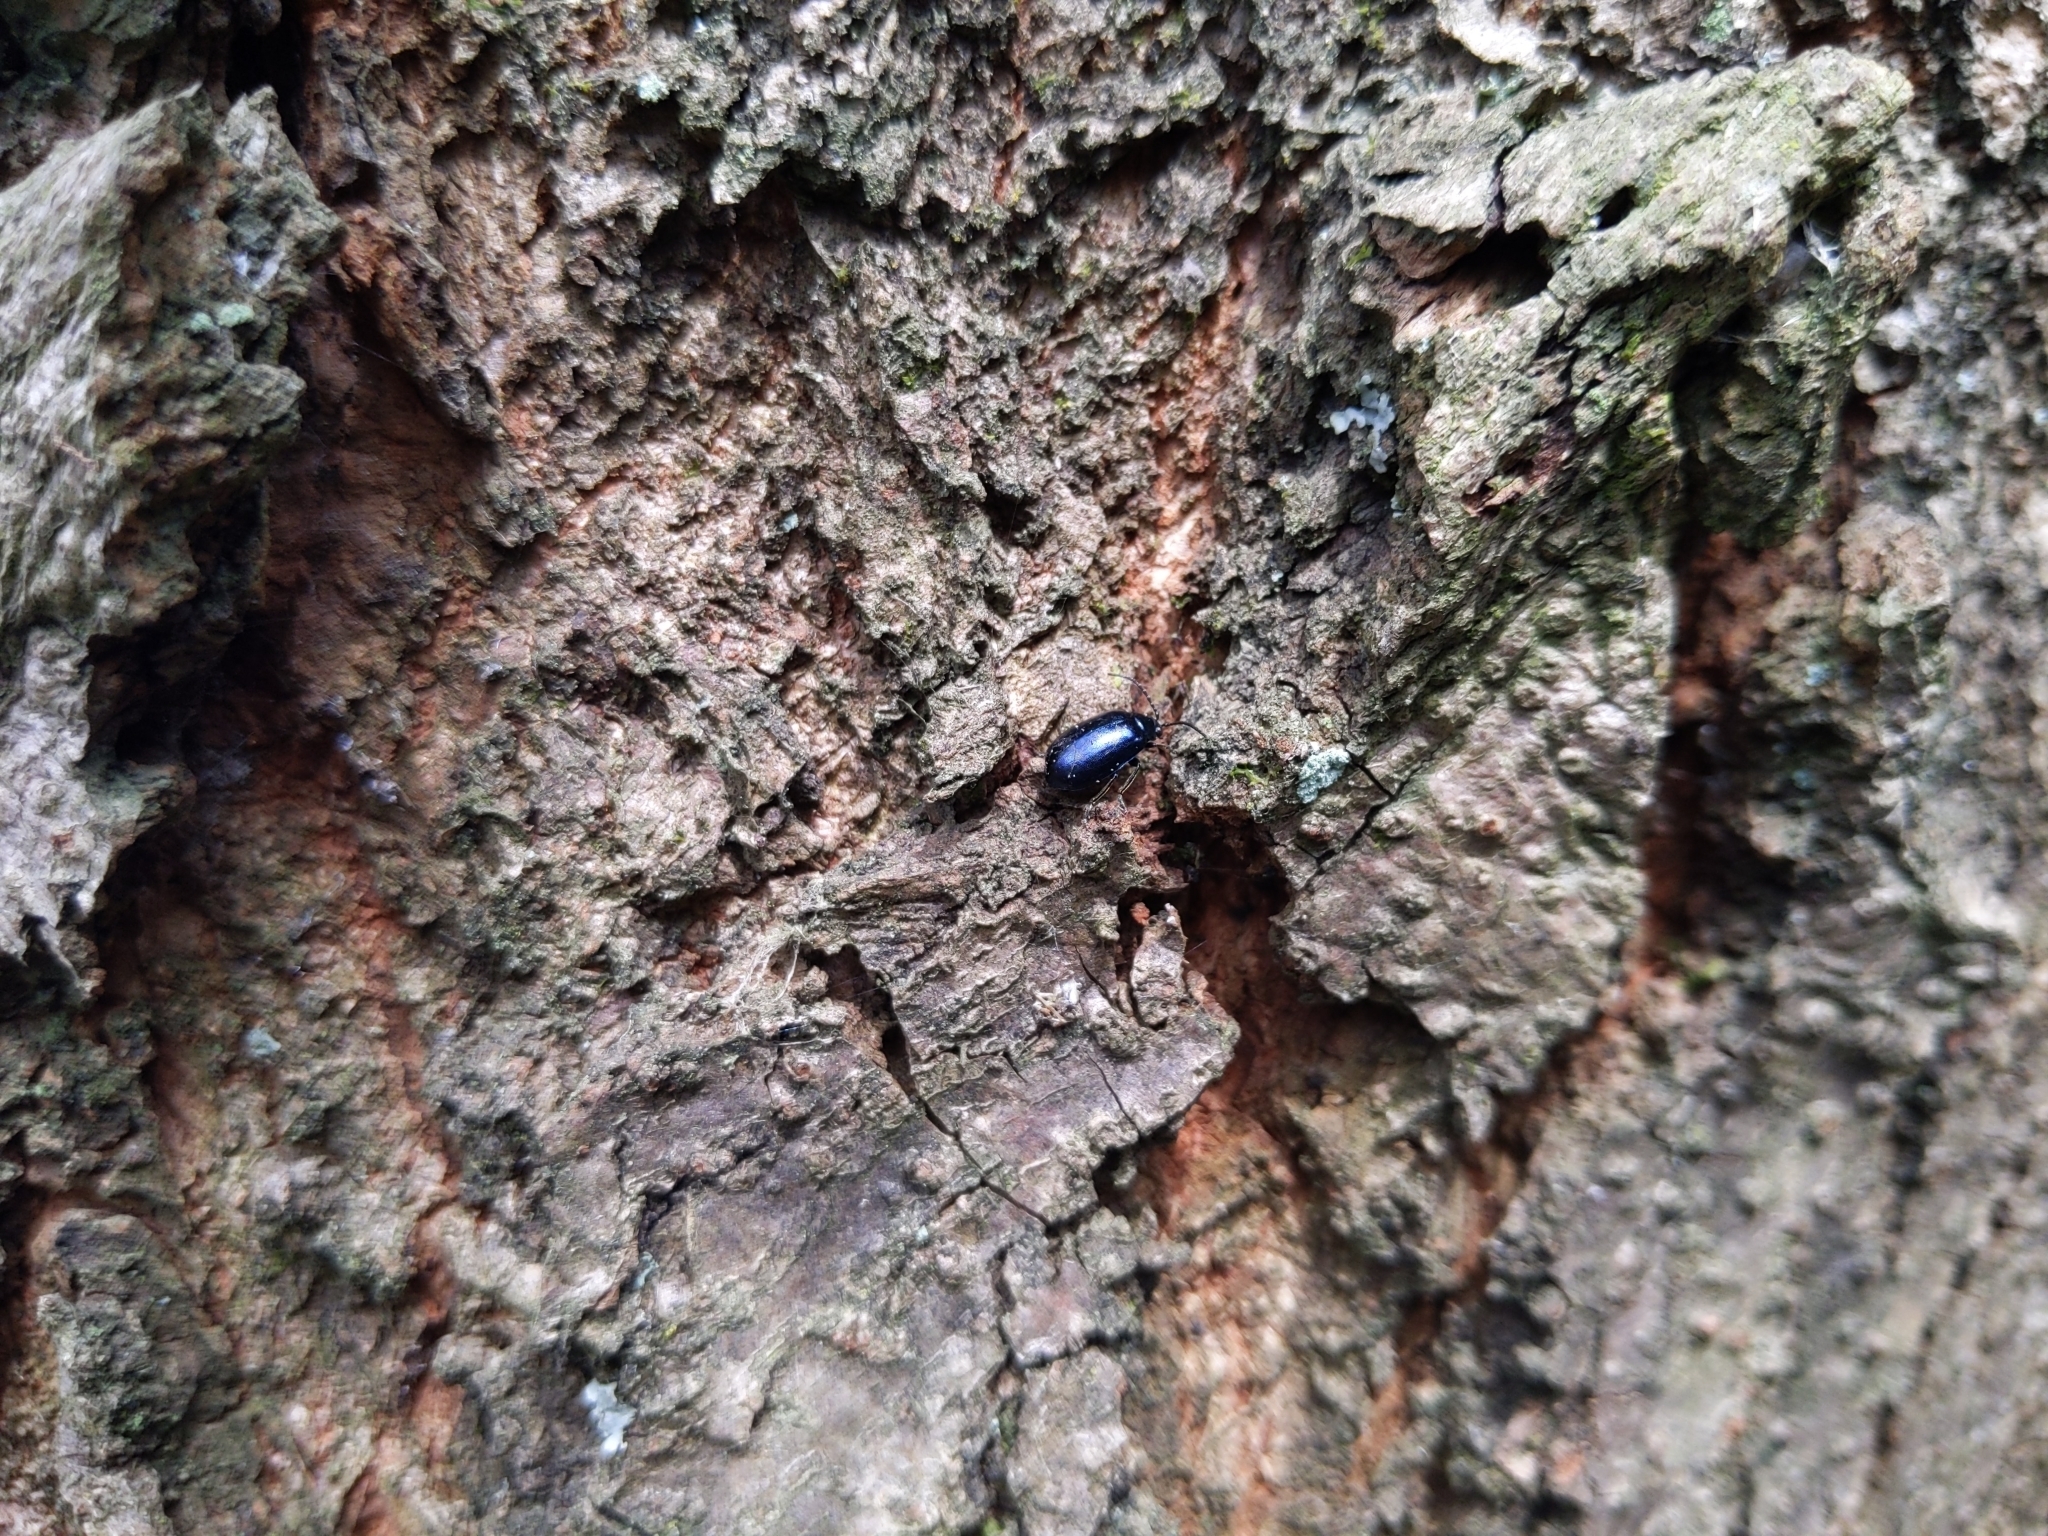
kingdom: Animalia
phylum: Arthropoda
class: Insecta
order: Coleoptera
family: Chrysomelidae
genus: Agelastica
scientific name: Agelastica alni
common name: Alder leaf beetle
